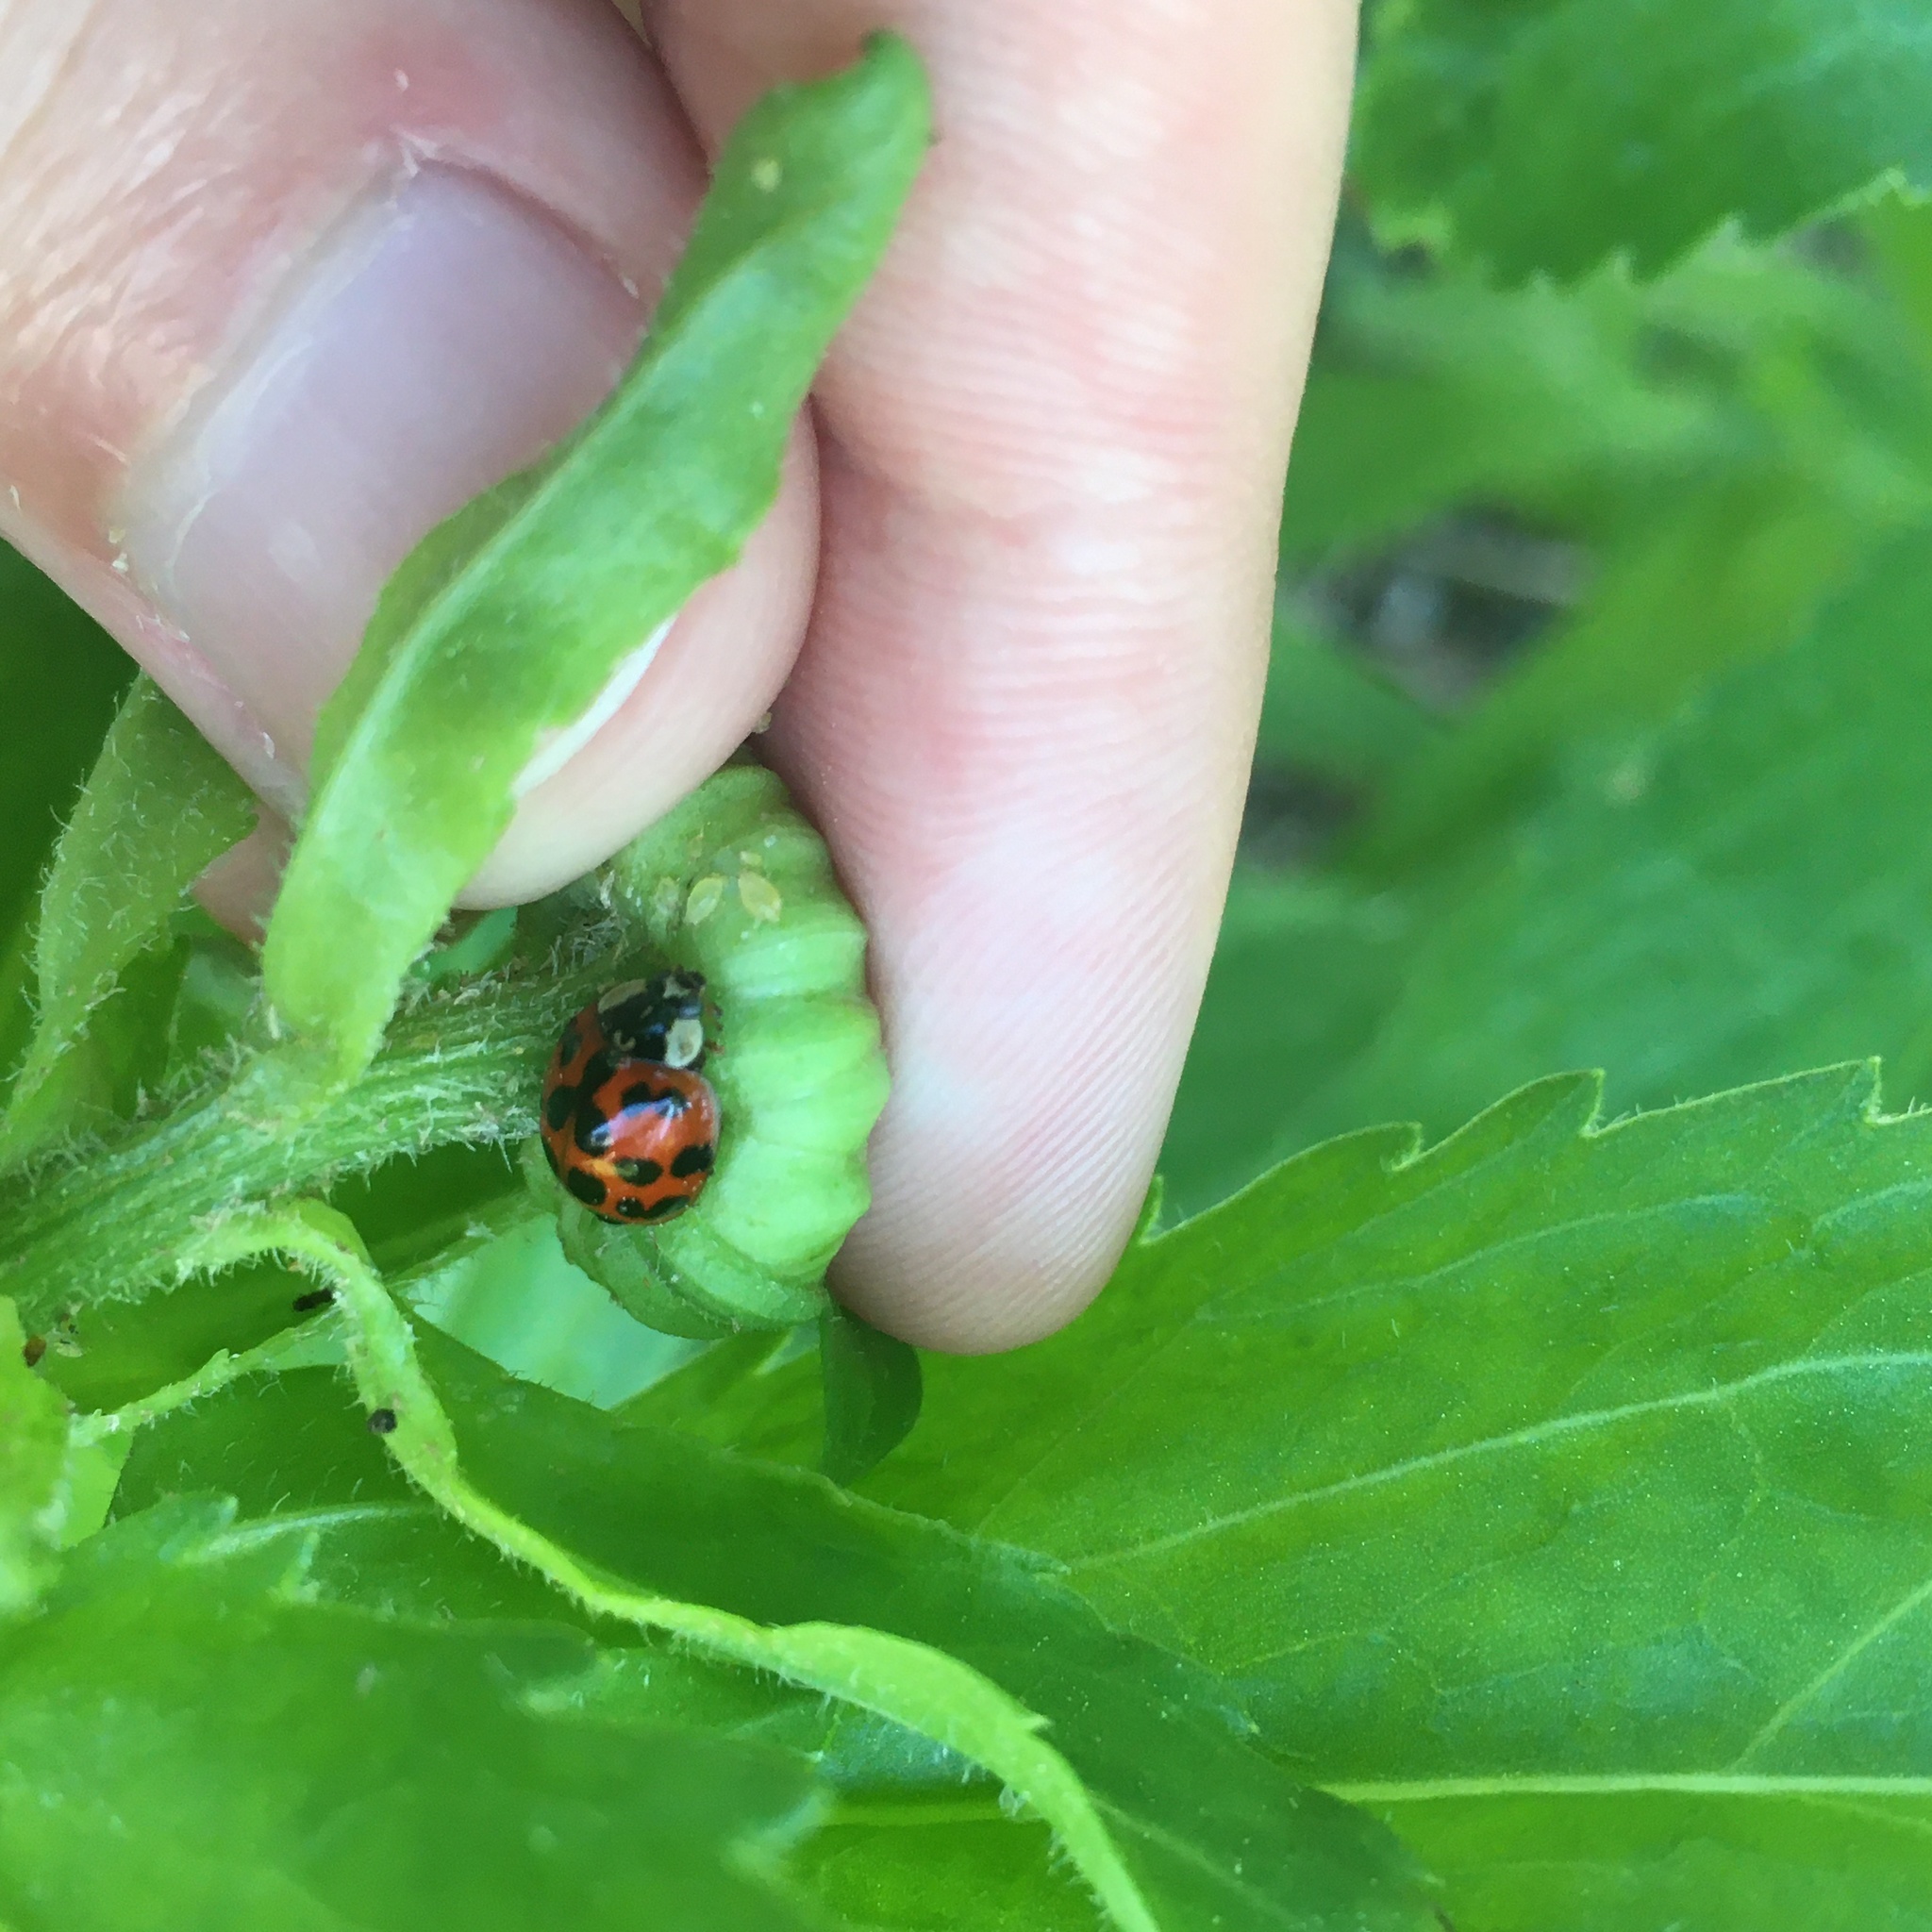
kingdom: Animalia
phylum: Arthropoda
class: Insecta
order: Coleoptera
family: Coccinellidae
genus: Harmonia
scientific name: Harmonia axyridis
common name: Harlequin ladybird
